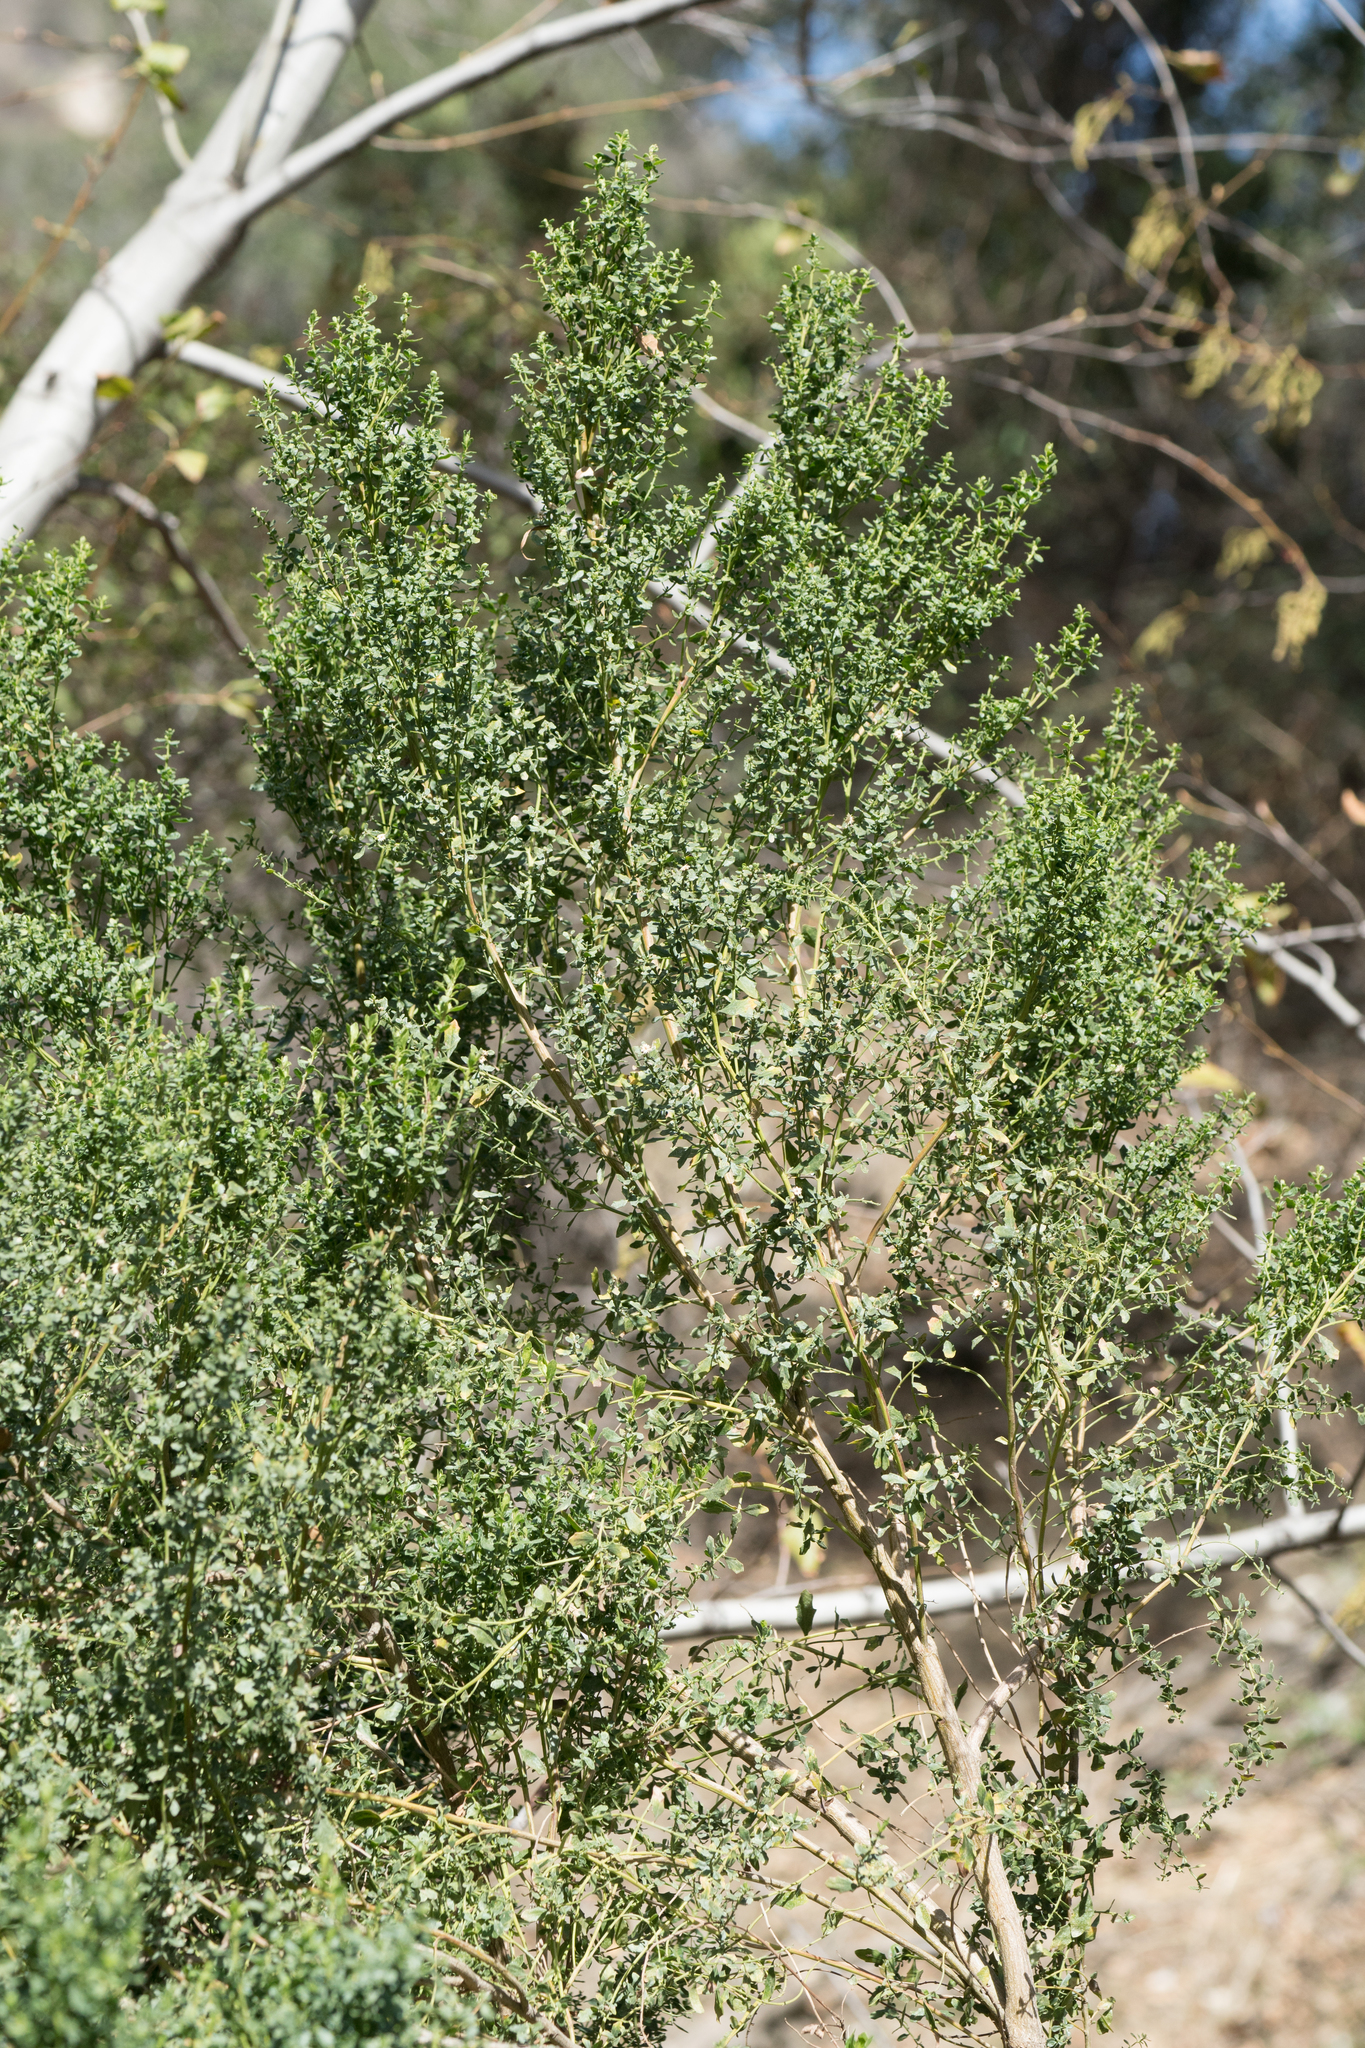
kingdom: Plantae
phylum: Tracheophyta
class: Magnoliopsida
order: Asterales
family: Asteraceae
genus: Baccharis
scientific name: Baccharis pilularis
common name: Coyotebrush
